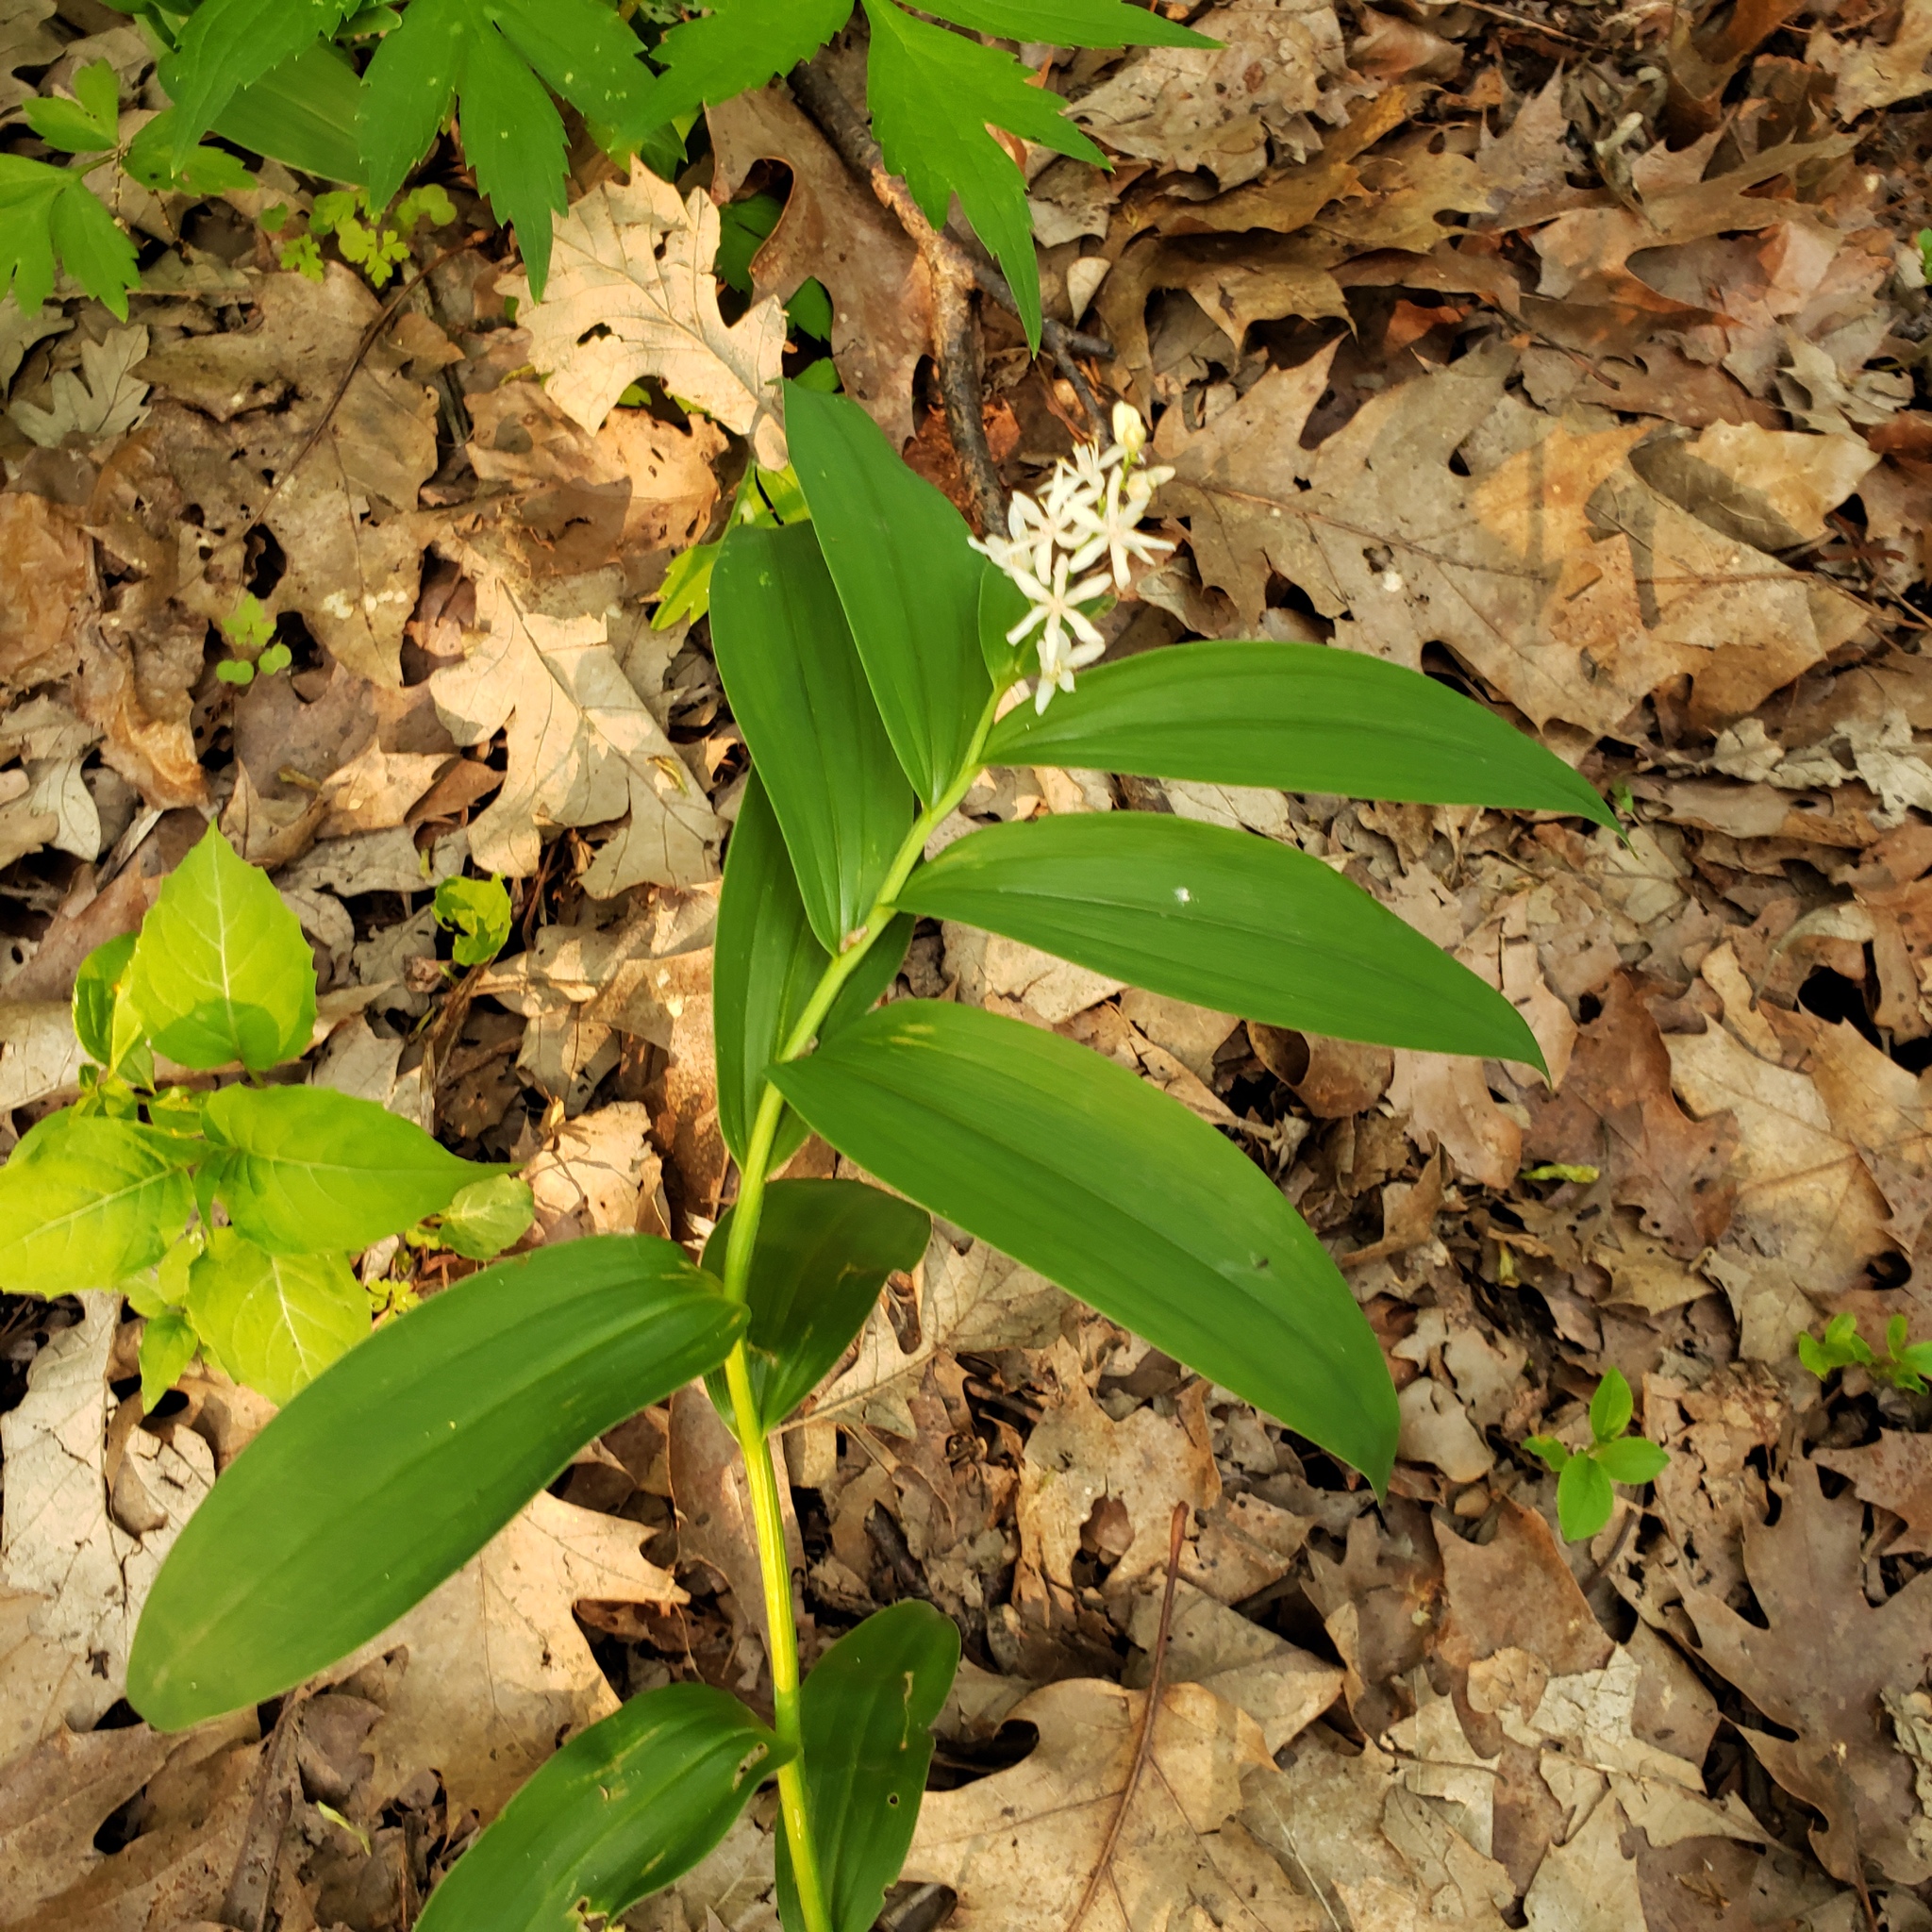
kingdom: Plantae
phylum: Tracheophyta
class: Liliopsida
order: Asparagales
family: Asparagaceae
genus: Maianthemum
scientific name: Maianthemum stellatum
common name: Little false solomon's seal
